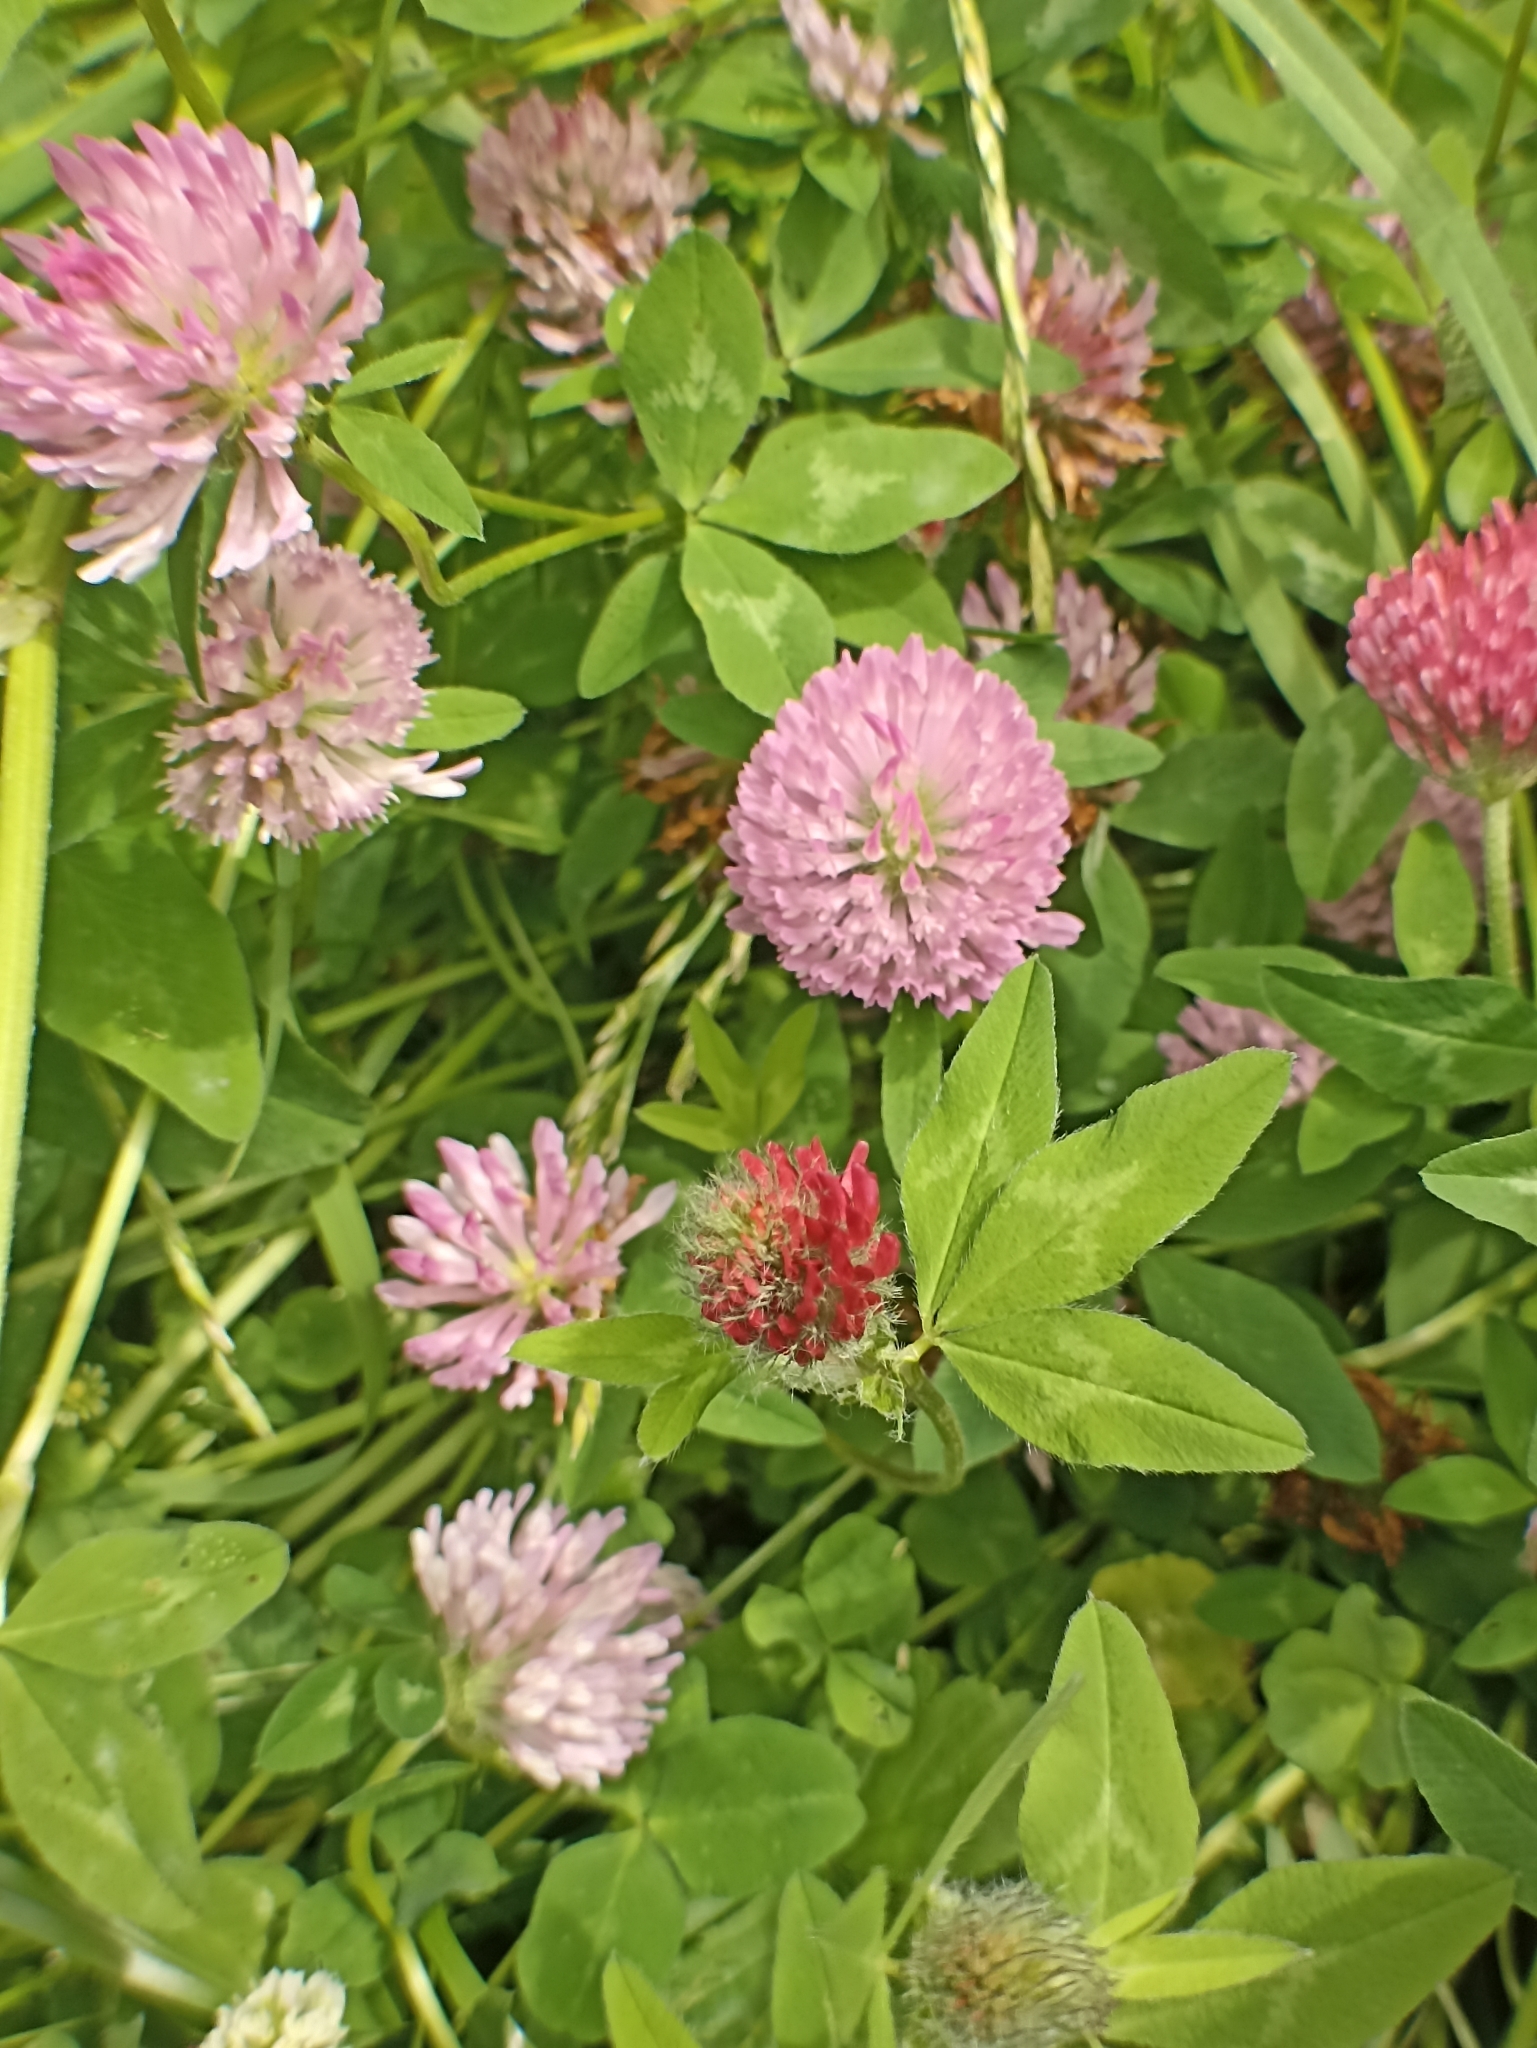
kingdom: Plantae
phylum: Tracheophyta
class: Magnoliopsida
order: Fabales
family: Fabaceae
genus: Trifolium
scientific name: Trifolium pratense
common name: Red clover
